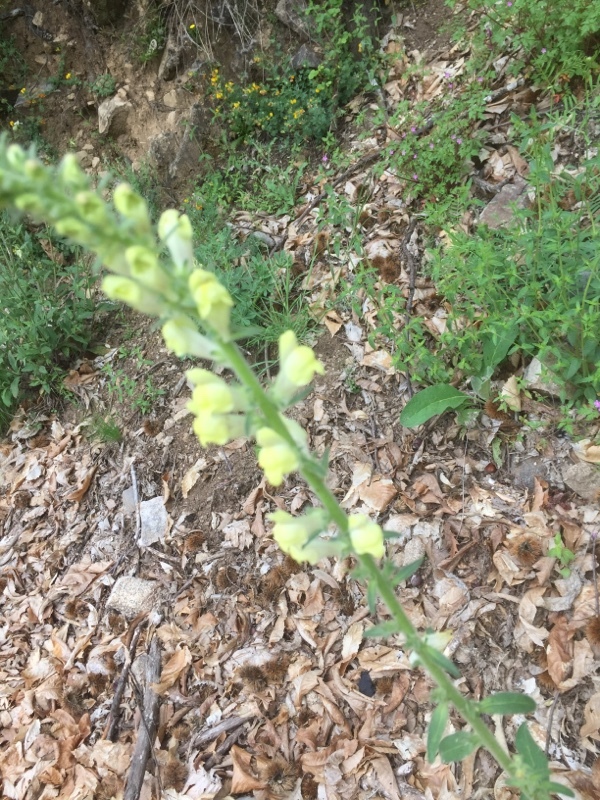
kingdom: Plantae
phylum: Tracheophyta
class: Magnoliopsida
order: Lamiales
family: Plantaginaceae
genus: Antirrhinum
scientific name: Antirrhinum meonanthum
